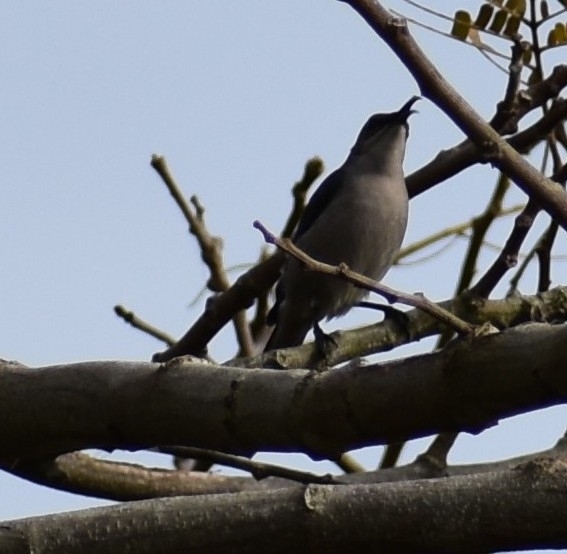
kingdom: Animalia
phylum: Chordata
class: Aves
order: Passeriformes
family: Nectariniidae
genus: Cyanomitra
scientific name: Cyanomitra veroxii
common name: Grey sunbird
